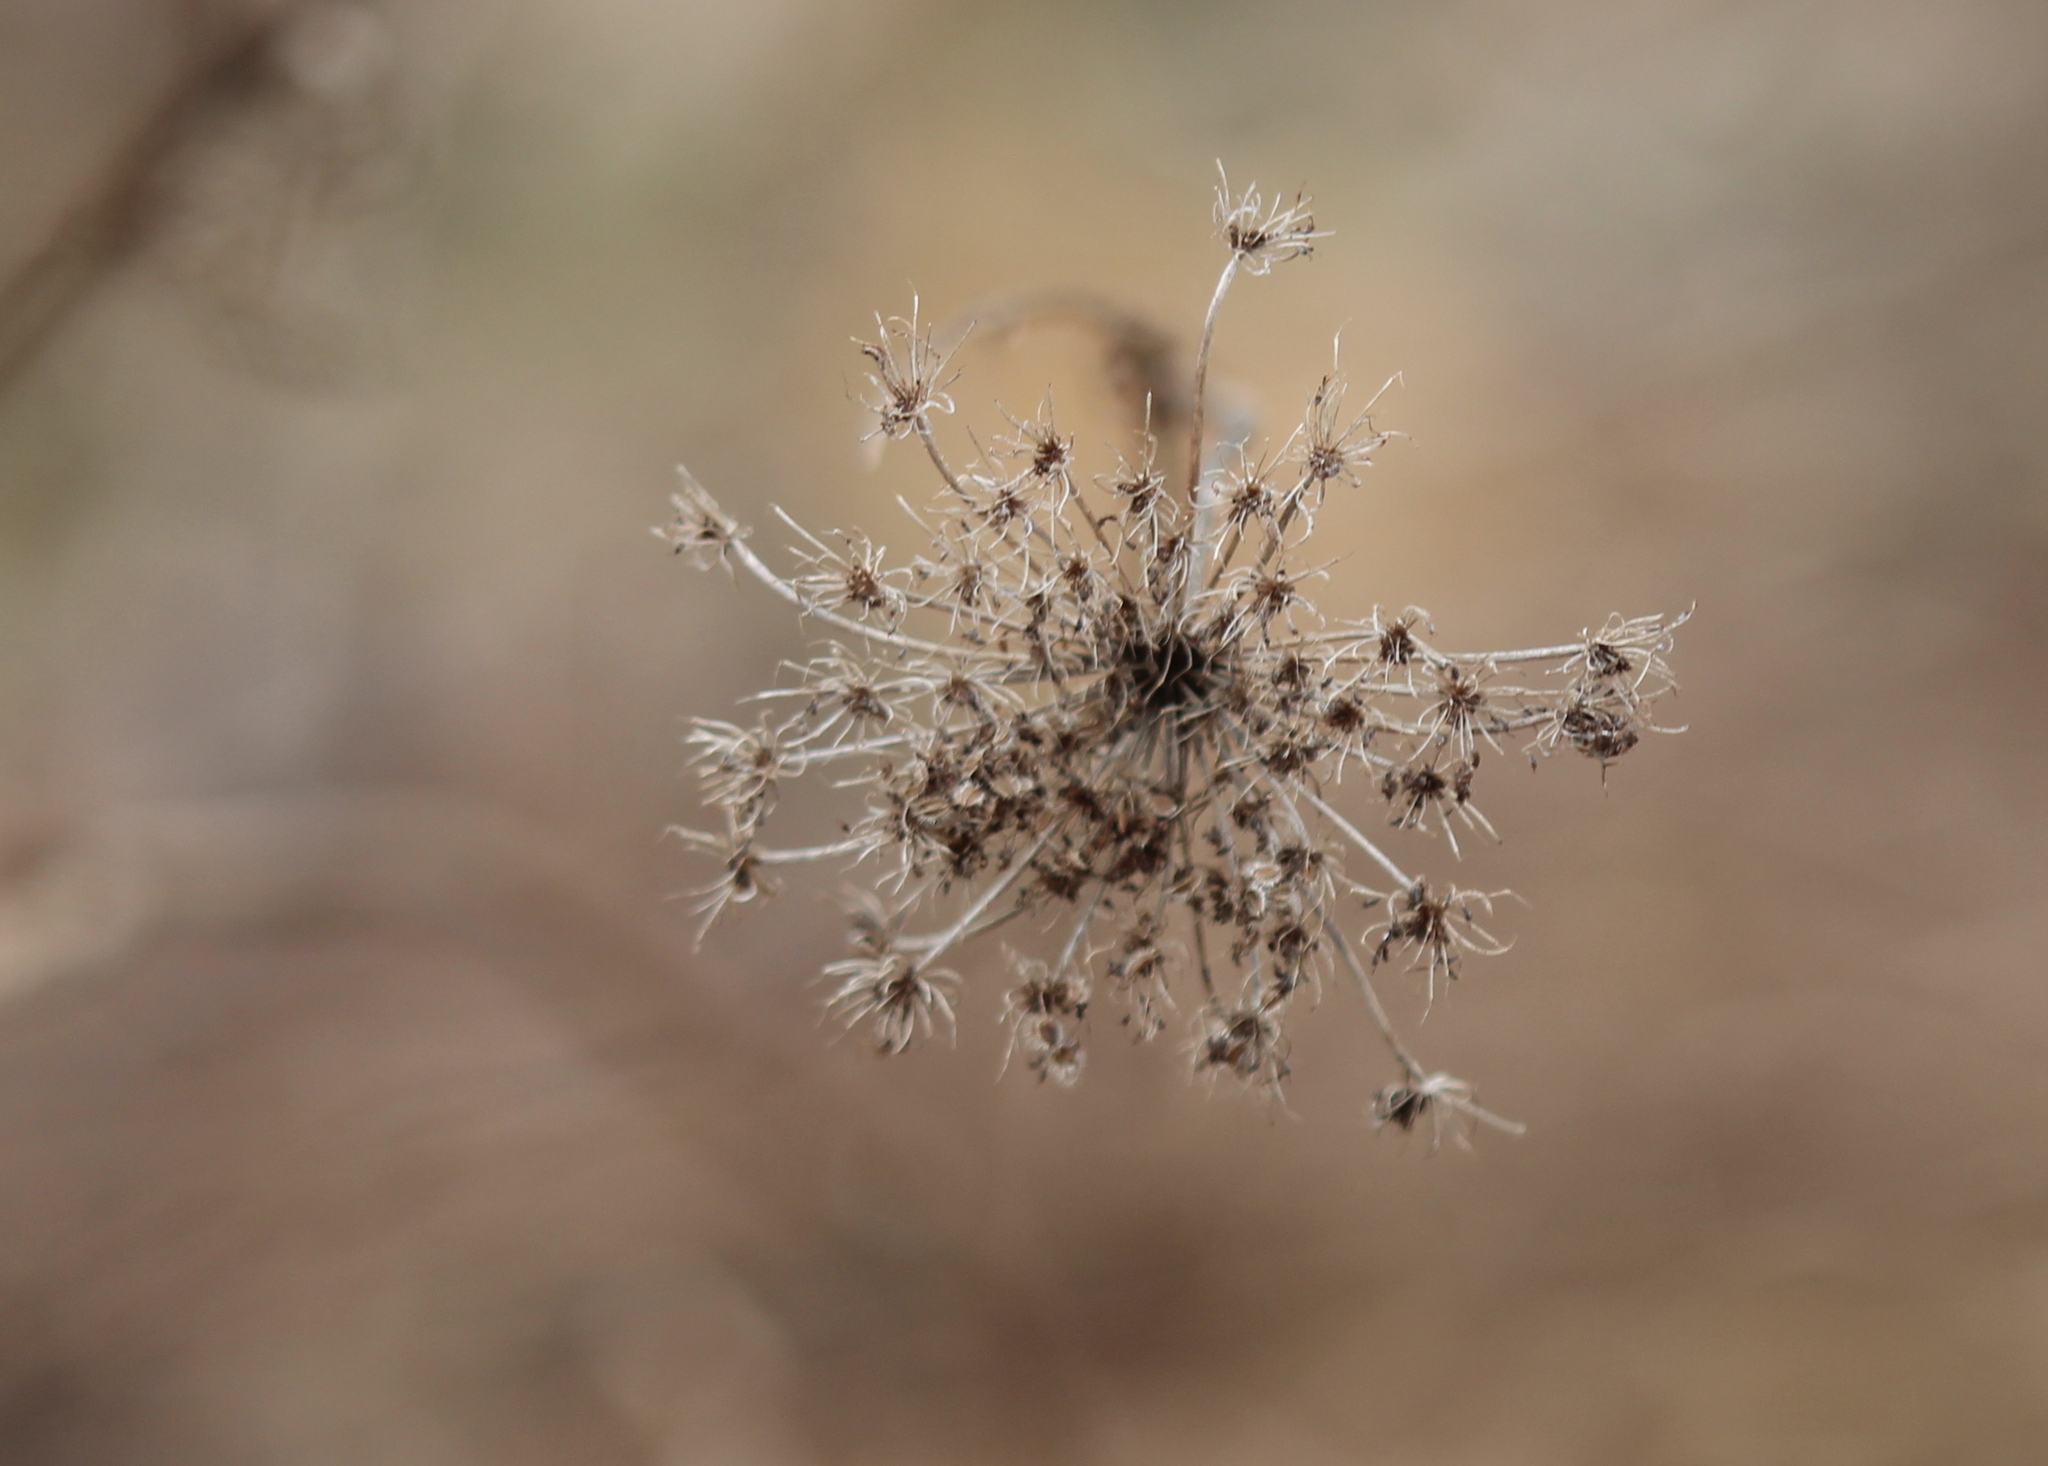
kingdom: Plantae
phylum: Tracheophyta
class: Magnoliopsida
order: Apiales
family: Apiaceae
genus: Daucus
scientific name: Daucus carota
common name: Wild carrot
